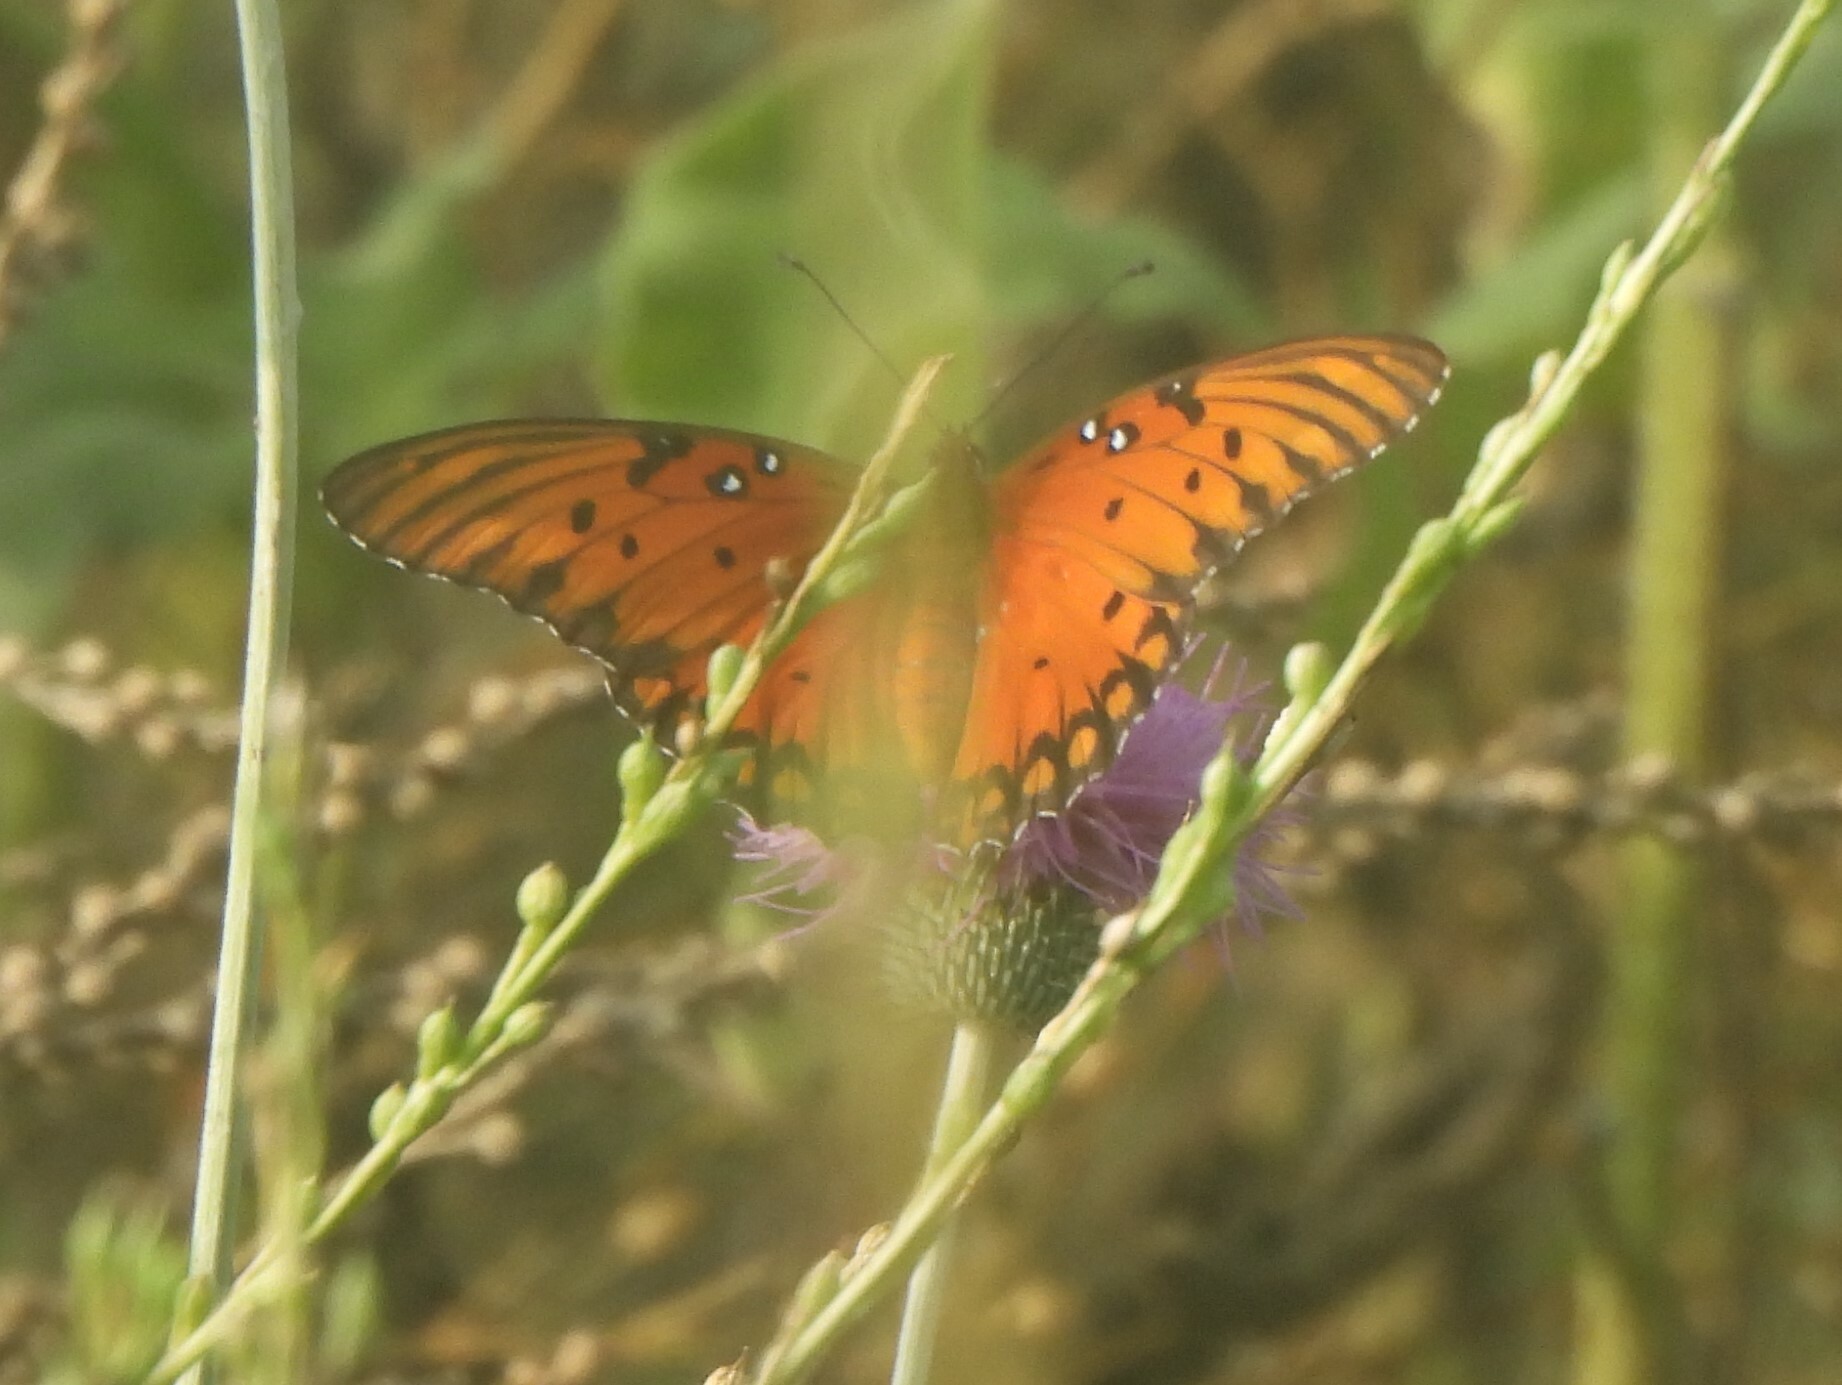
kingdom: Animalia
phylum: Arthropoda
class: Insecta
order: Lepidoptera
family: Nymphalidae
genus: Dione
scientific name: Dione vanillae
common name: Gulf fritillary
